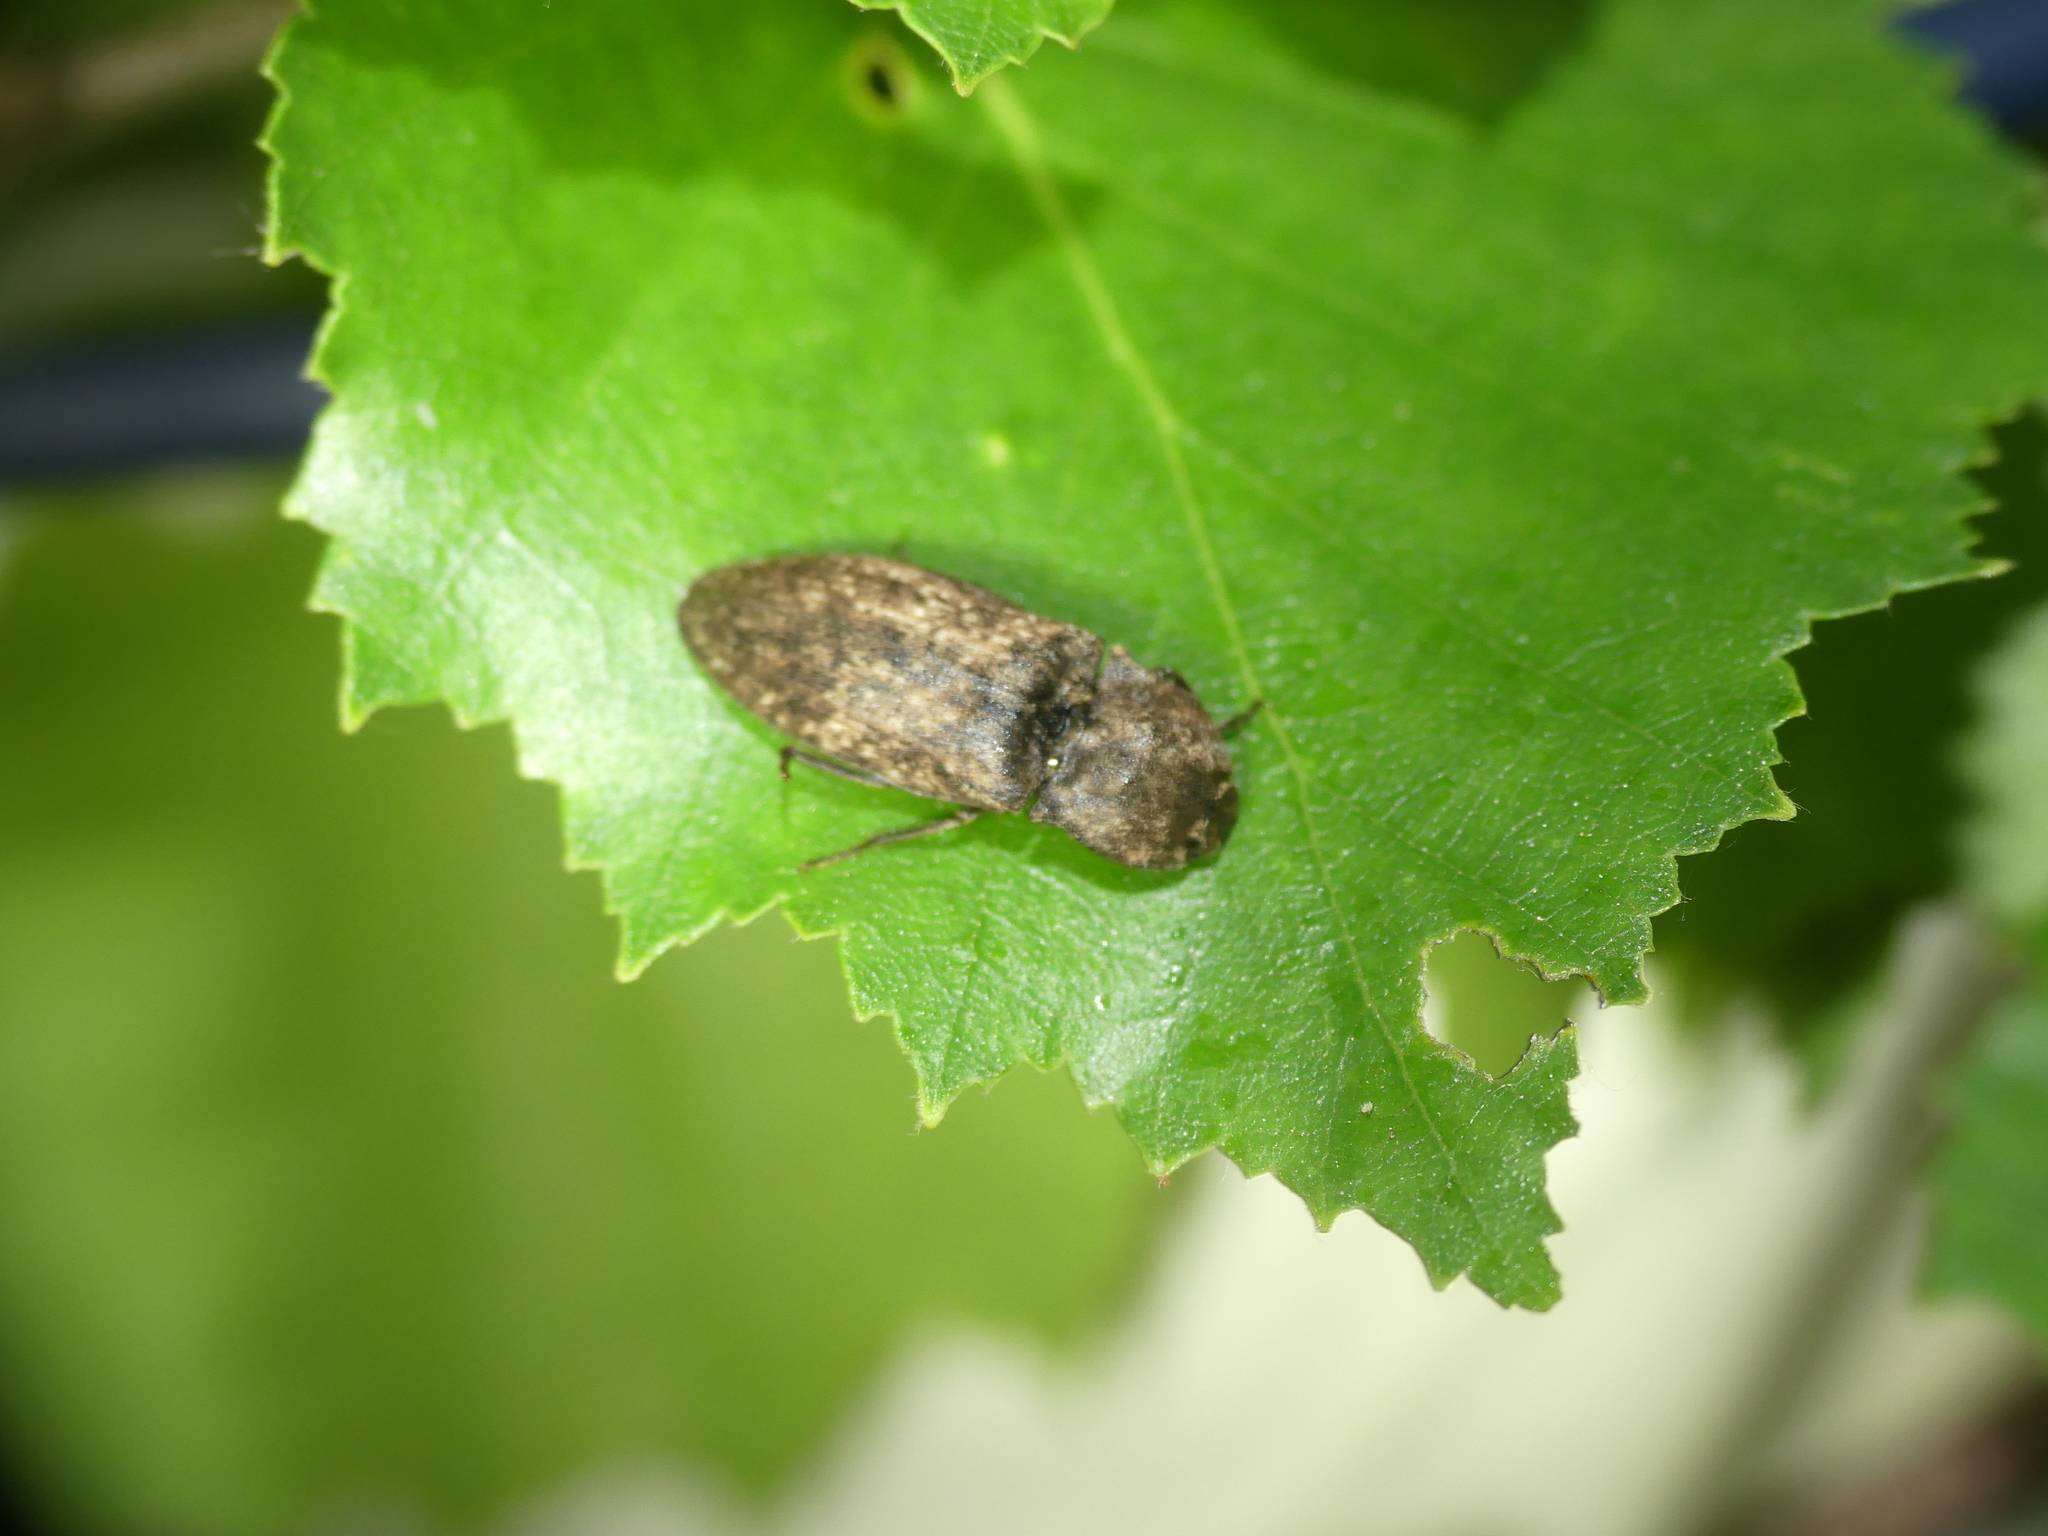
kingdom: Animalia
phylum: Arthropoda
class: Insecta
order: Coleoptera
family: Elateridae
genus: Agrypnus
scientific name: Agrypnus murinus
